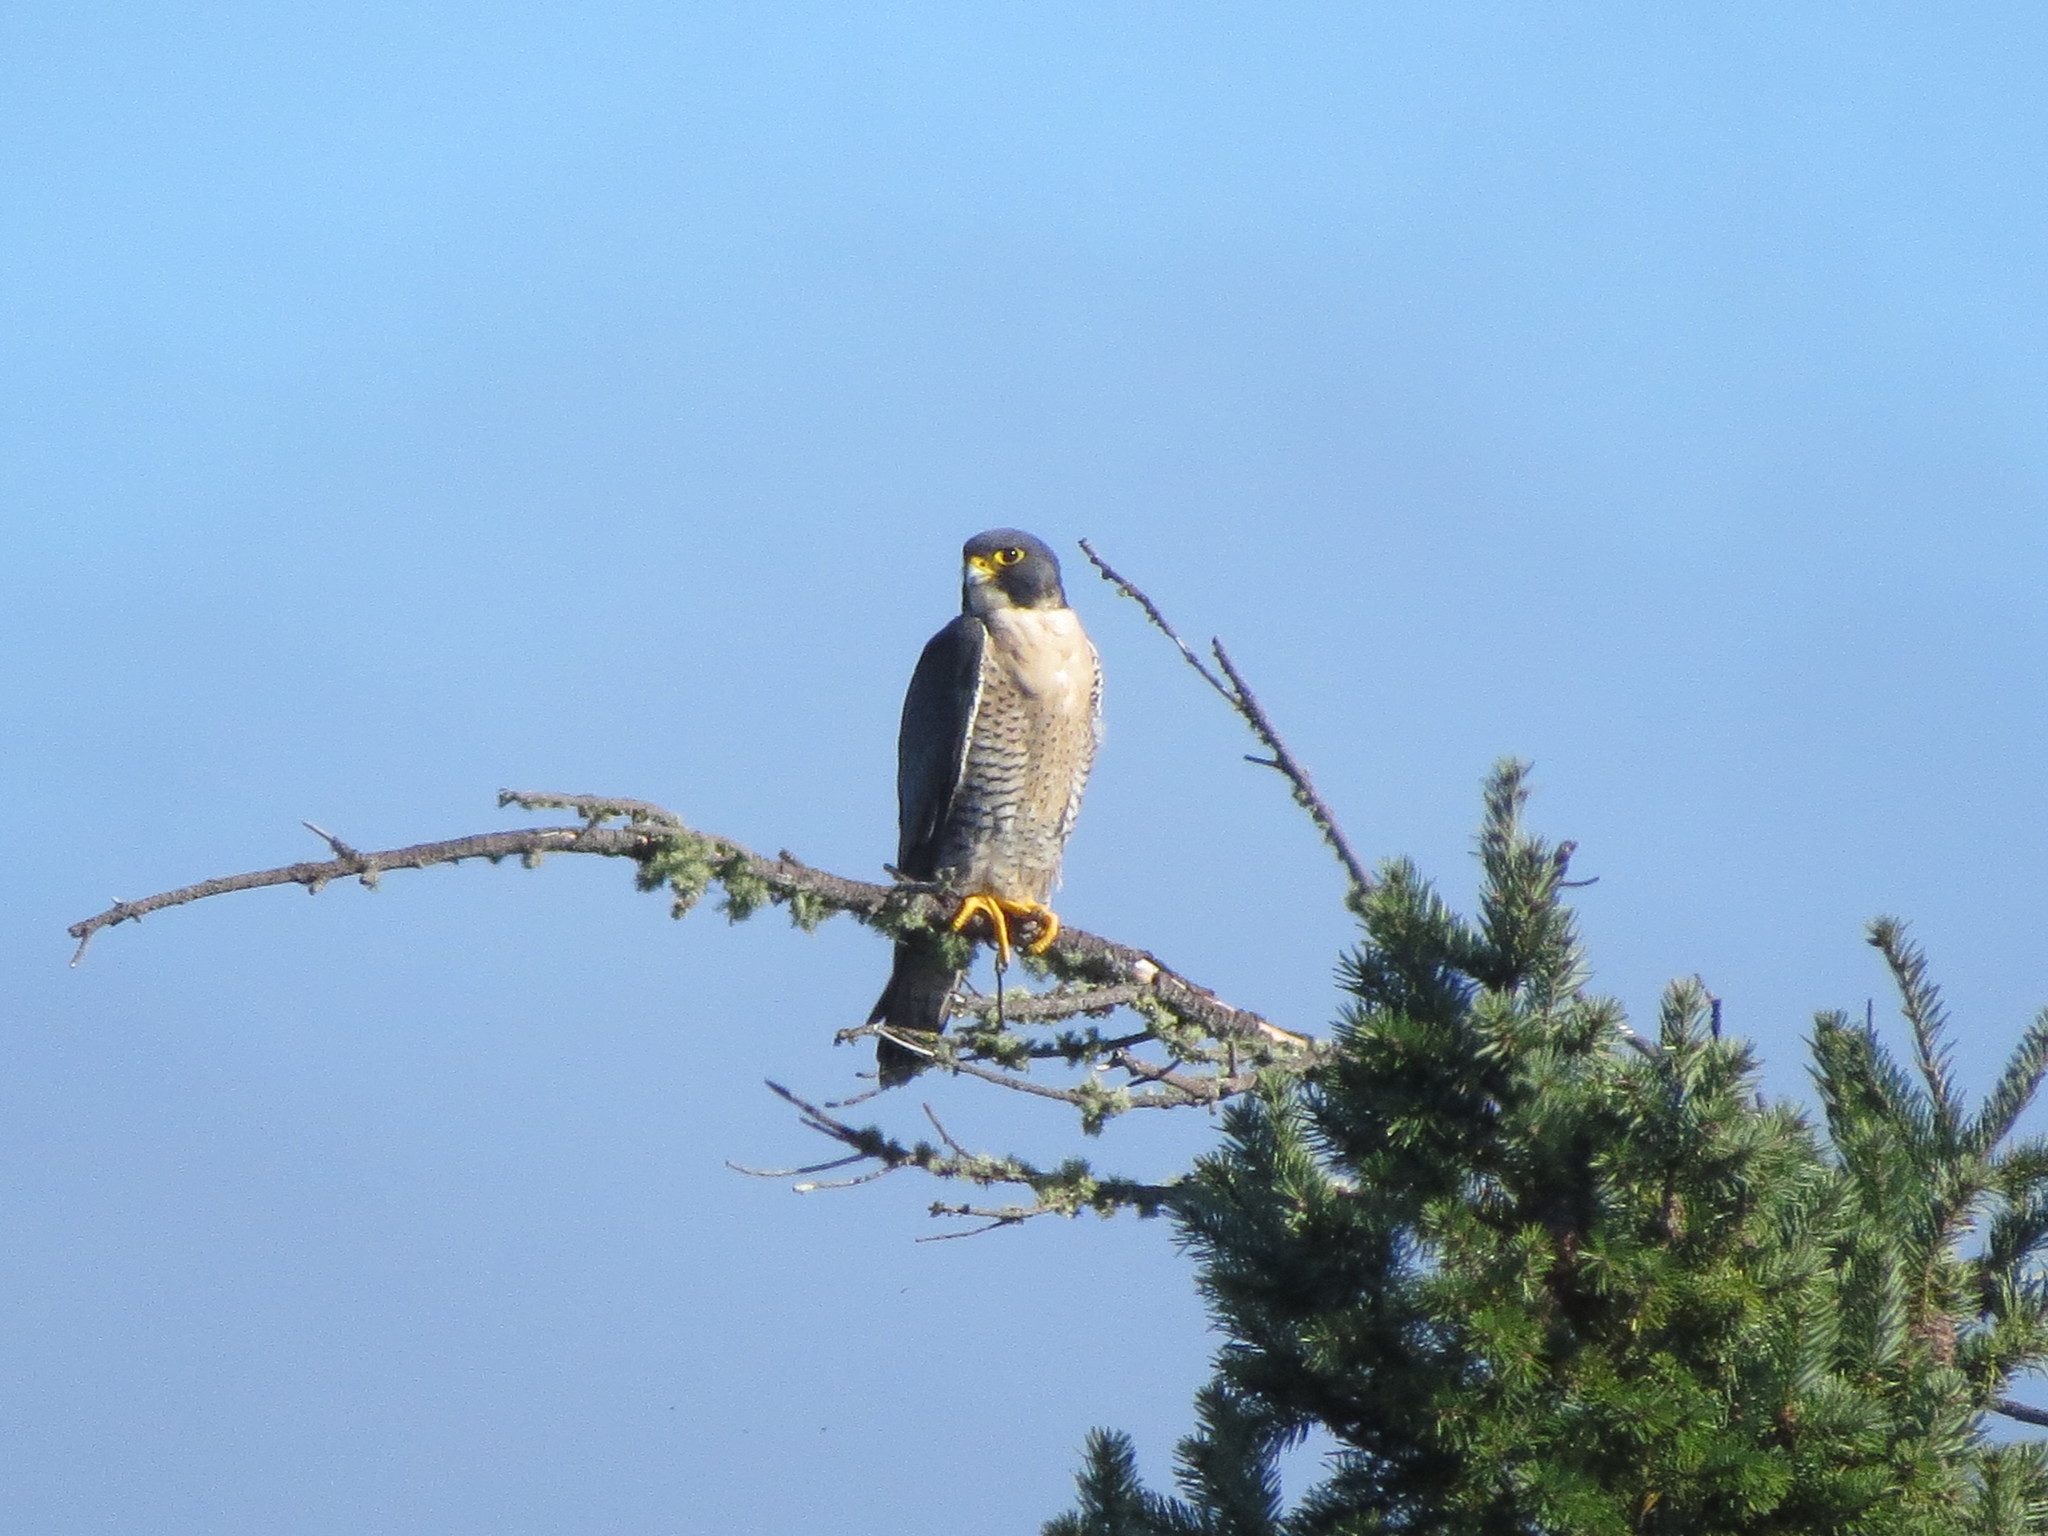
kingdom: Animalia
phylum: Chordata
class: Aves
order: Falconiformes
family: Falconidae
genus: Falco
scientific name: Falco peregrinus
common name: Peregrine falcon
